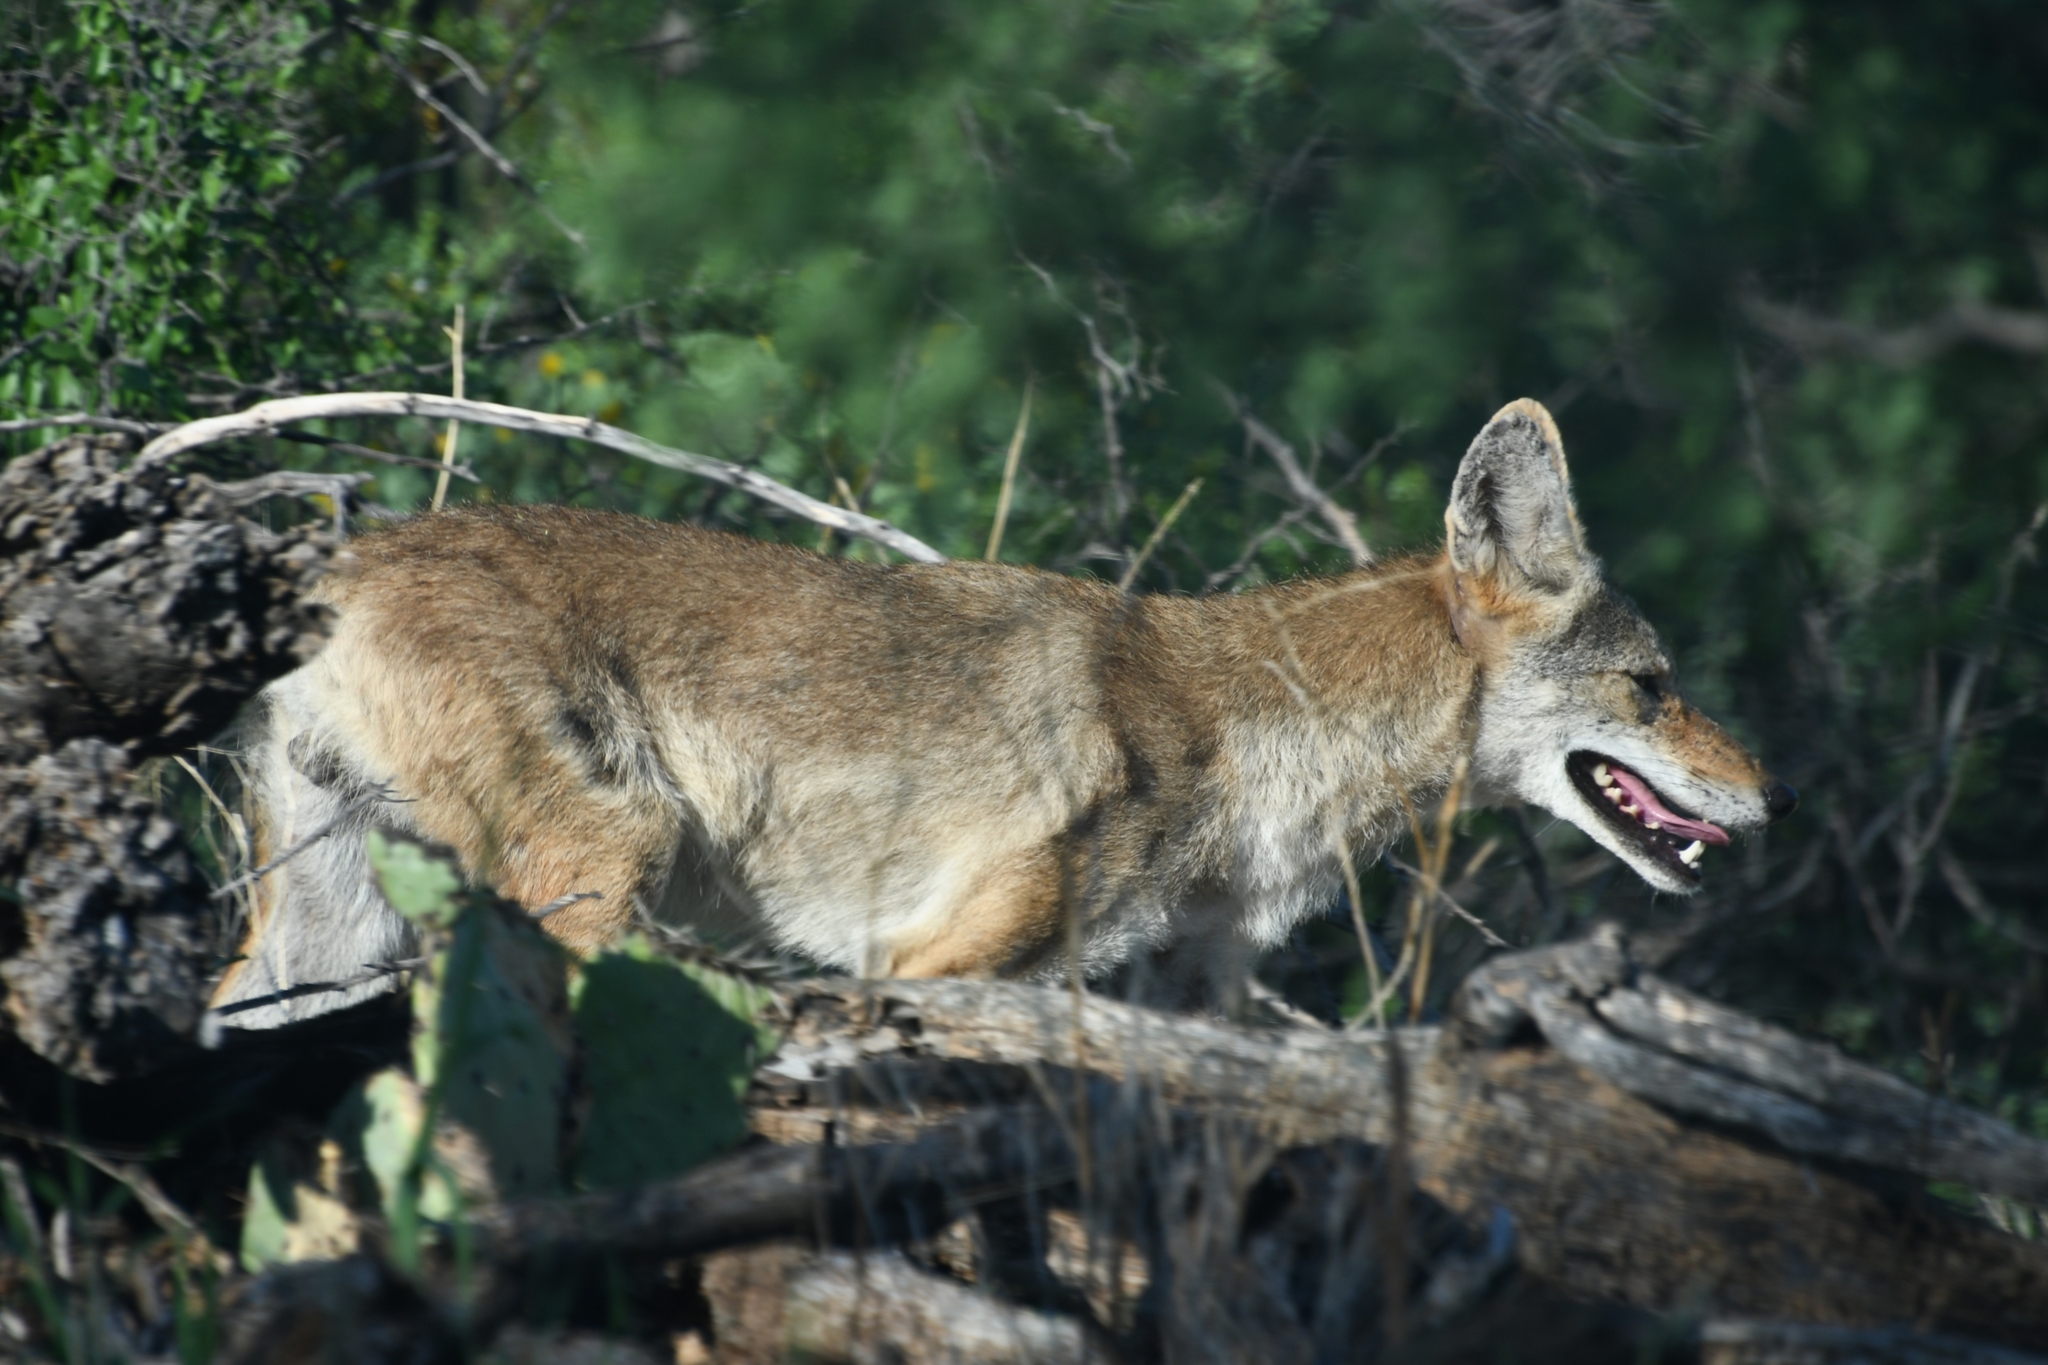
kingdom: Animalia
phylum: Chordata
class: Mammalia
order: Carnivora
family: Canidae
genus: Canis
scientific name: Canis latrans
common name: Coyote
